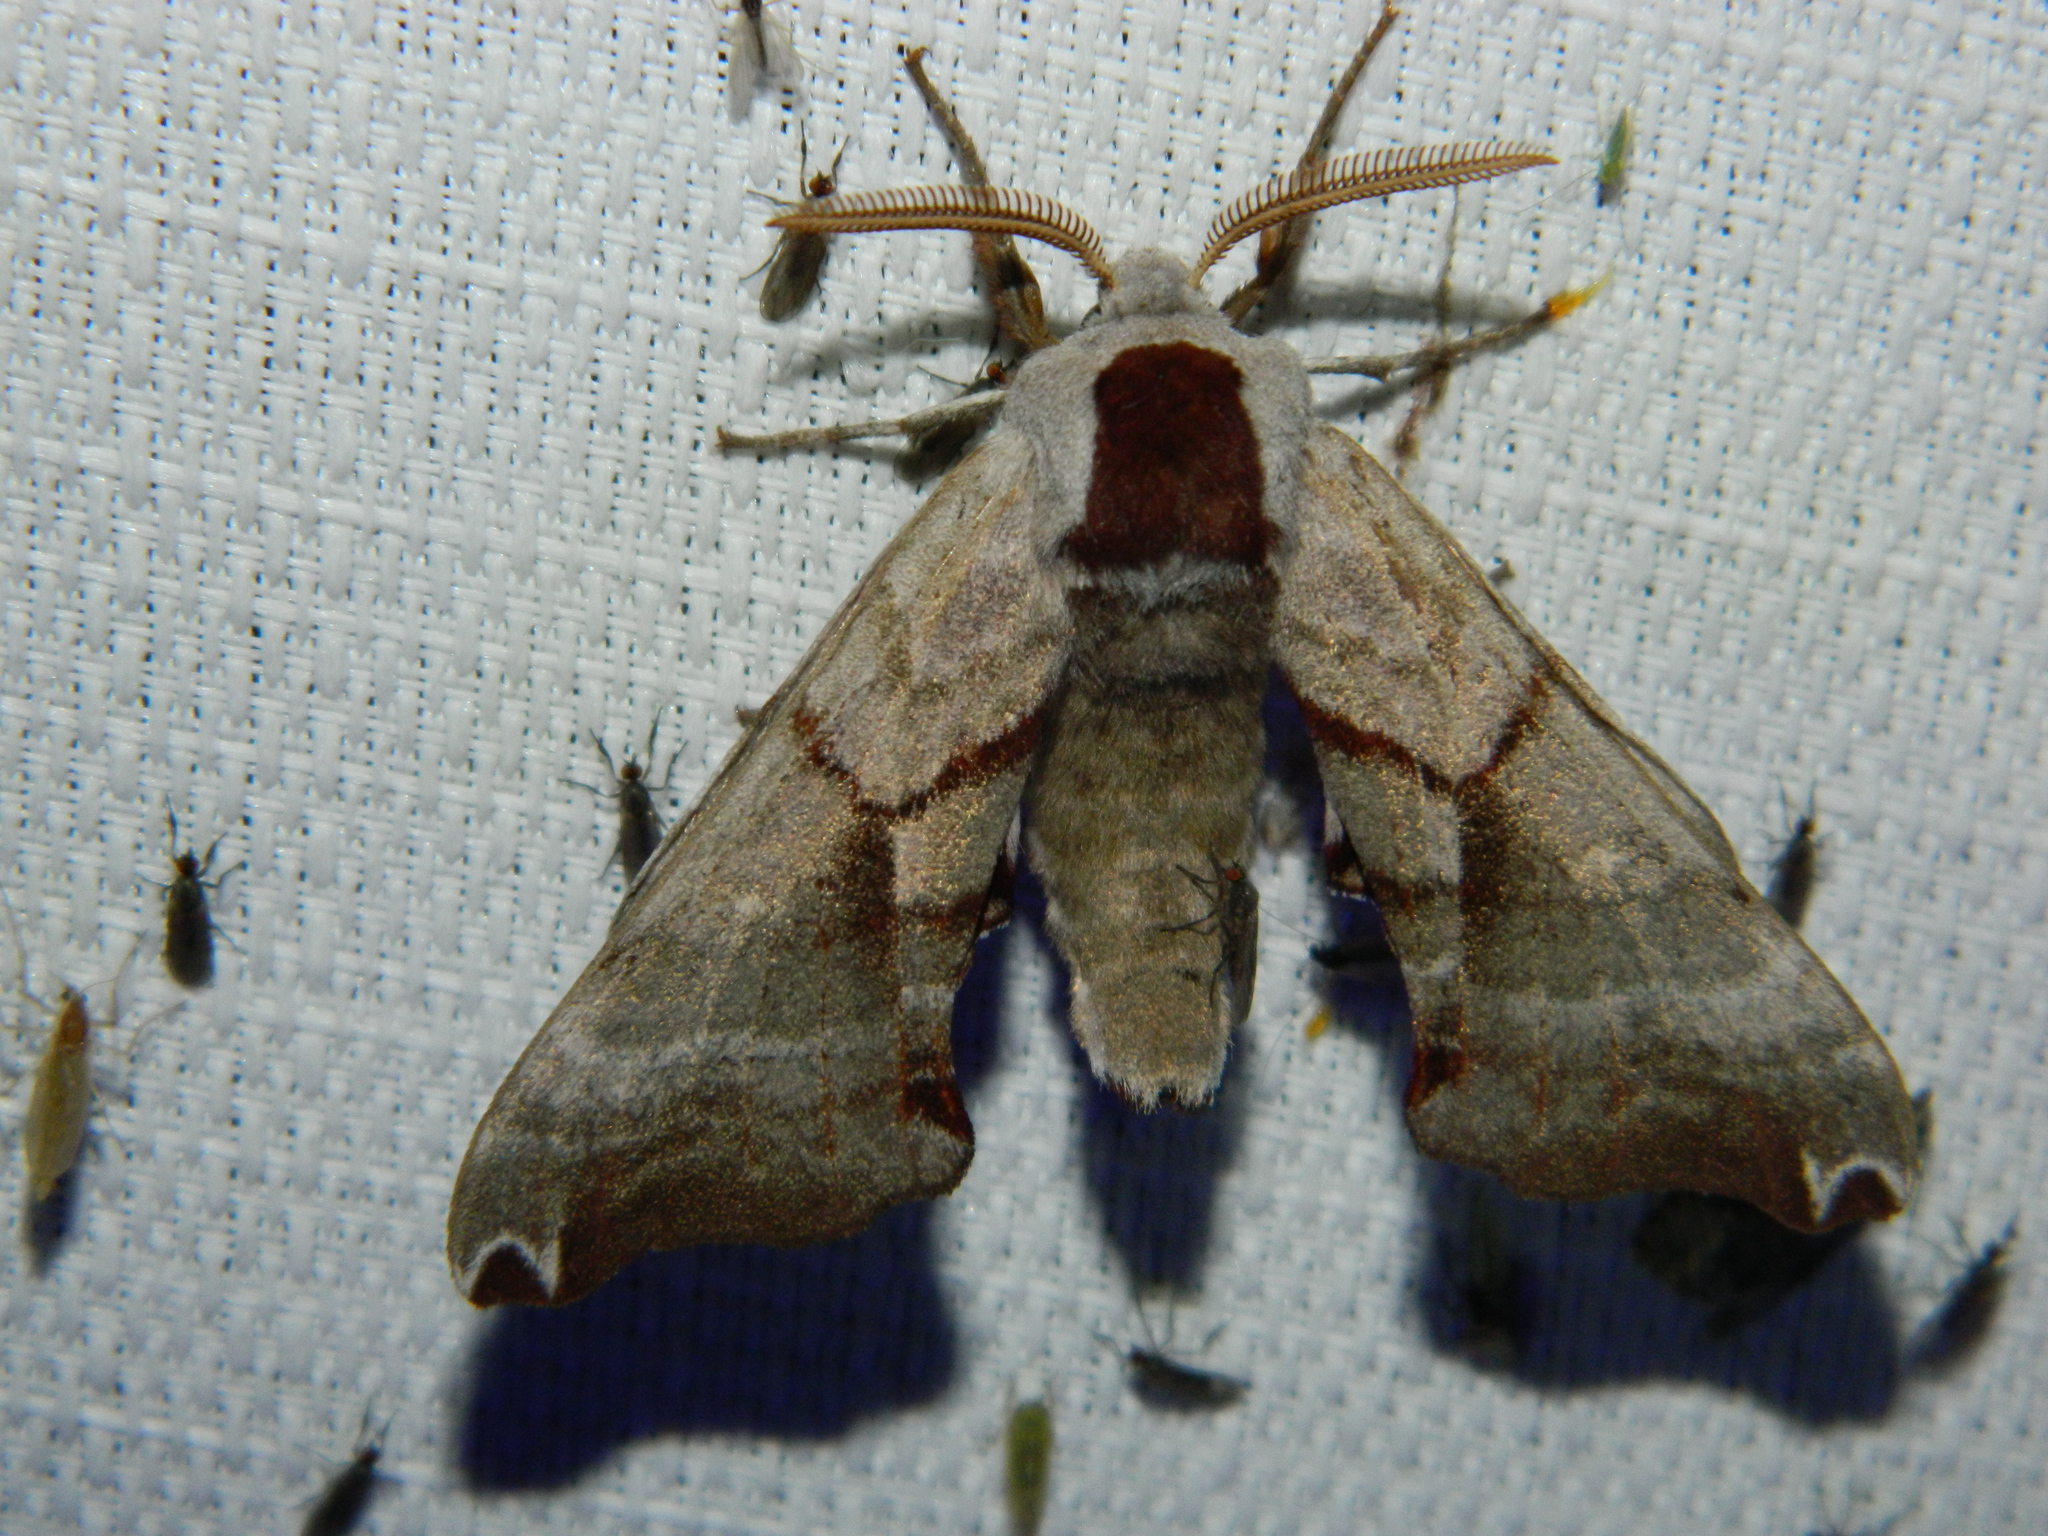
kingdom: Animalia
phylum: Arthropoda
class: Insecta
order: Lepidoptera
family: Sphingidae
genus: Smerinthus
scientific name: Smerinthus jamaicensis
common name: Twin spotted sphinx
